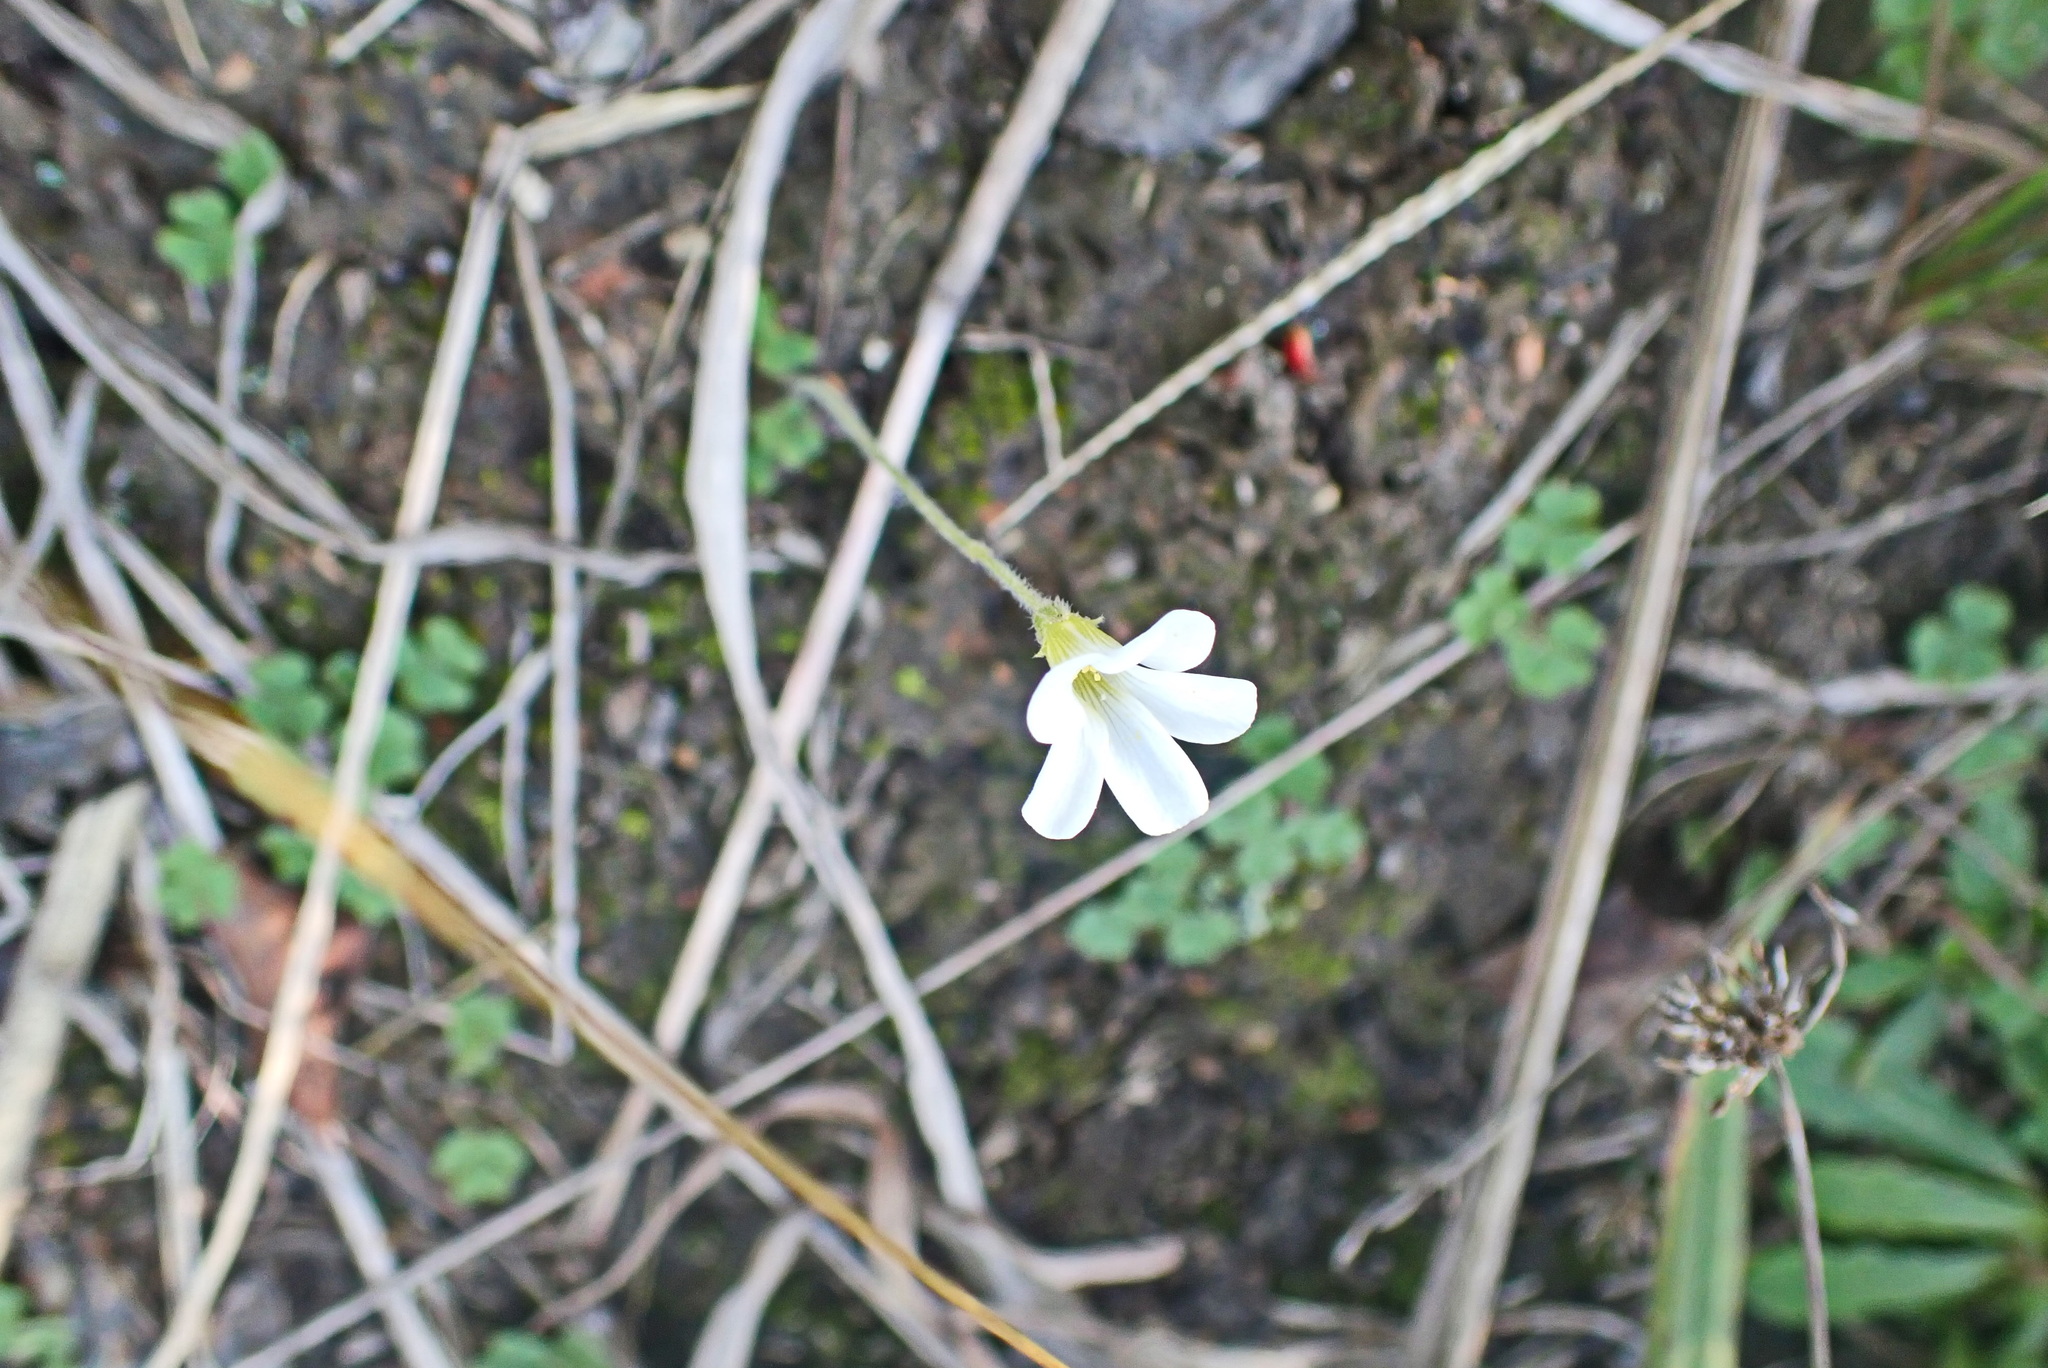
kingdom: Plantae
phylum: Tracheophyta
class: Magnoliopsida
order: Oxalidales
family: Oxalidaceae
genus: Oxalis
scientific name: Oxalis imbricata
